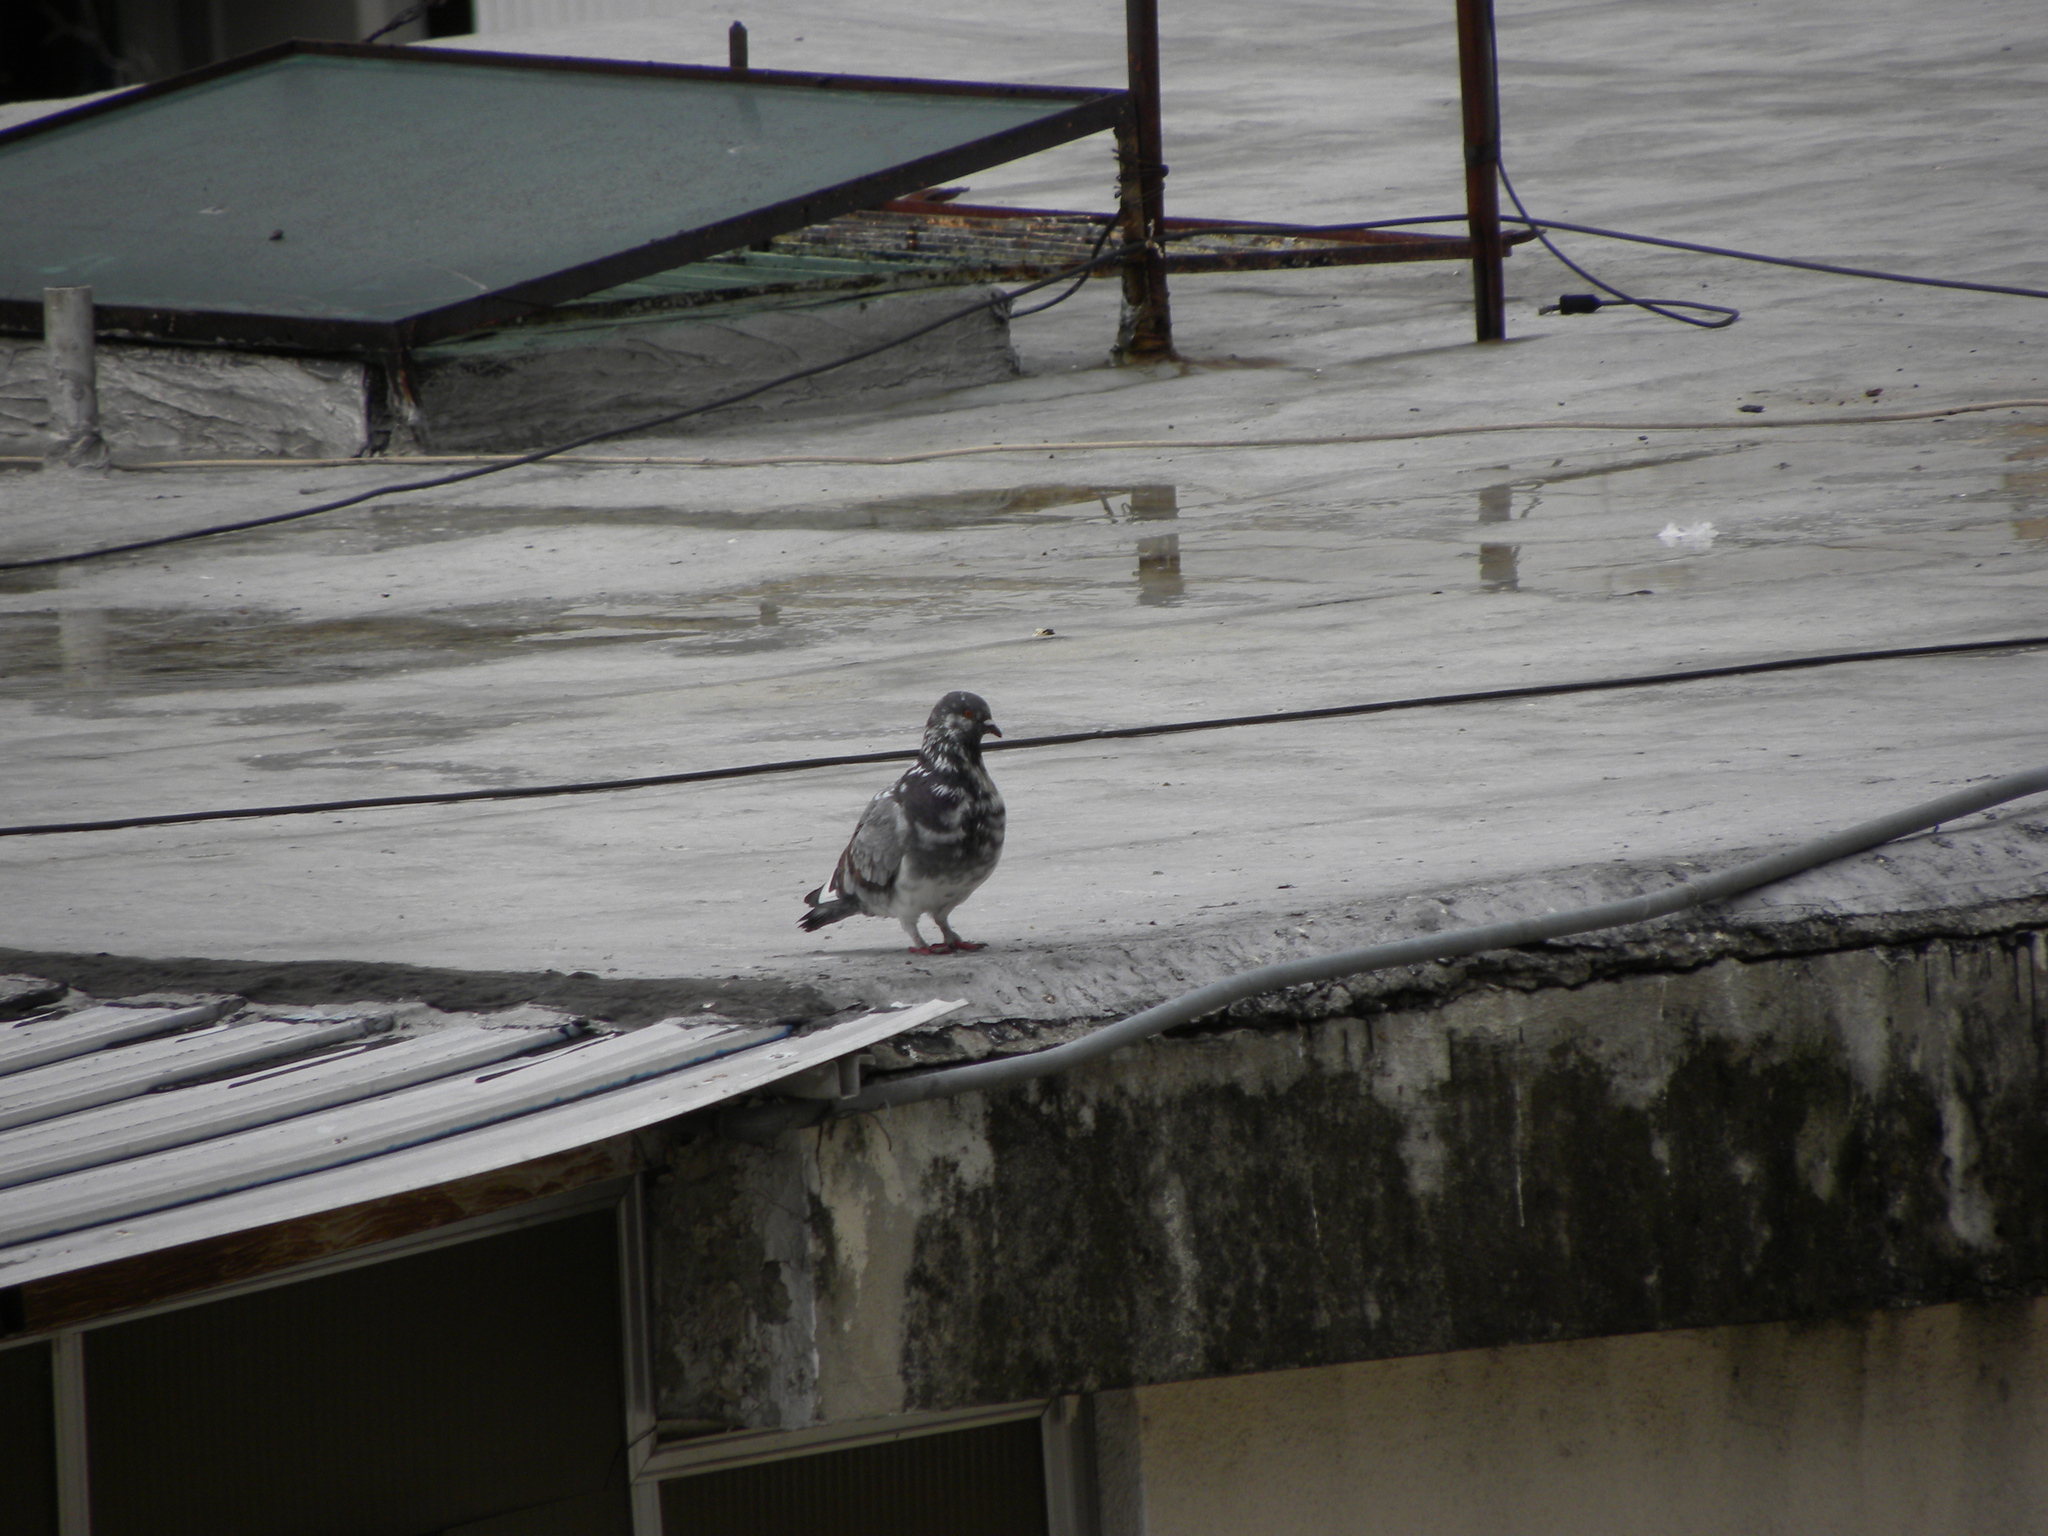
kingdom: Animalia
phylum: Chordata
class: Aves
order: Columbiformes
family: Columbidae
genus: Columba
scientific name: Columba livia
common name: Rock pigeon
